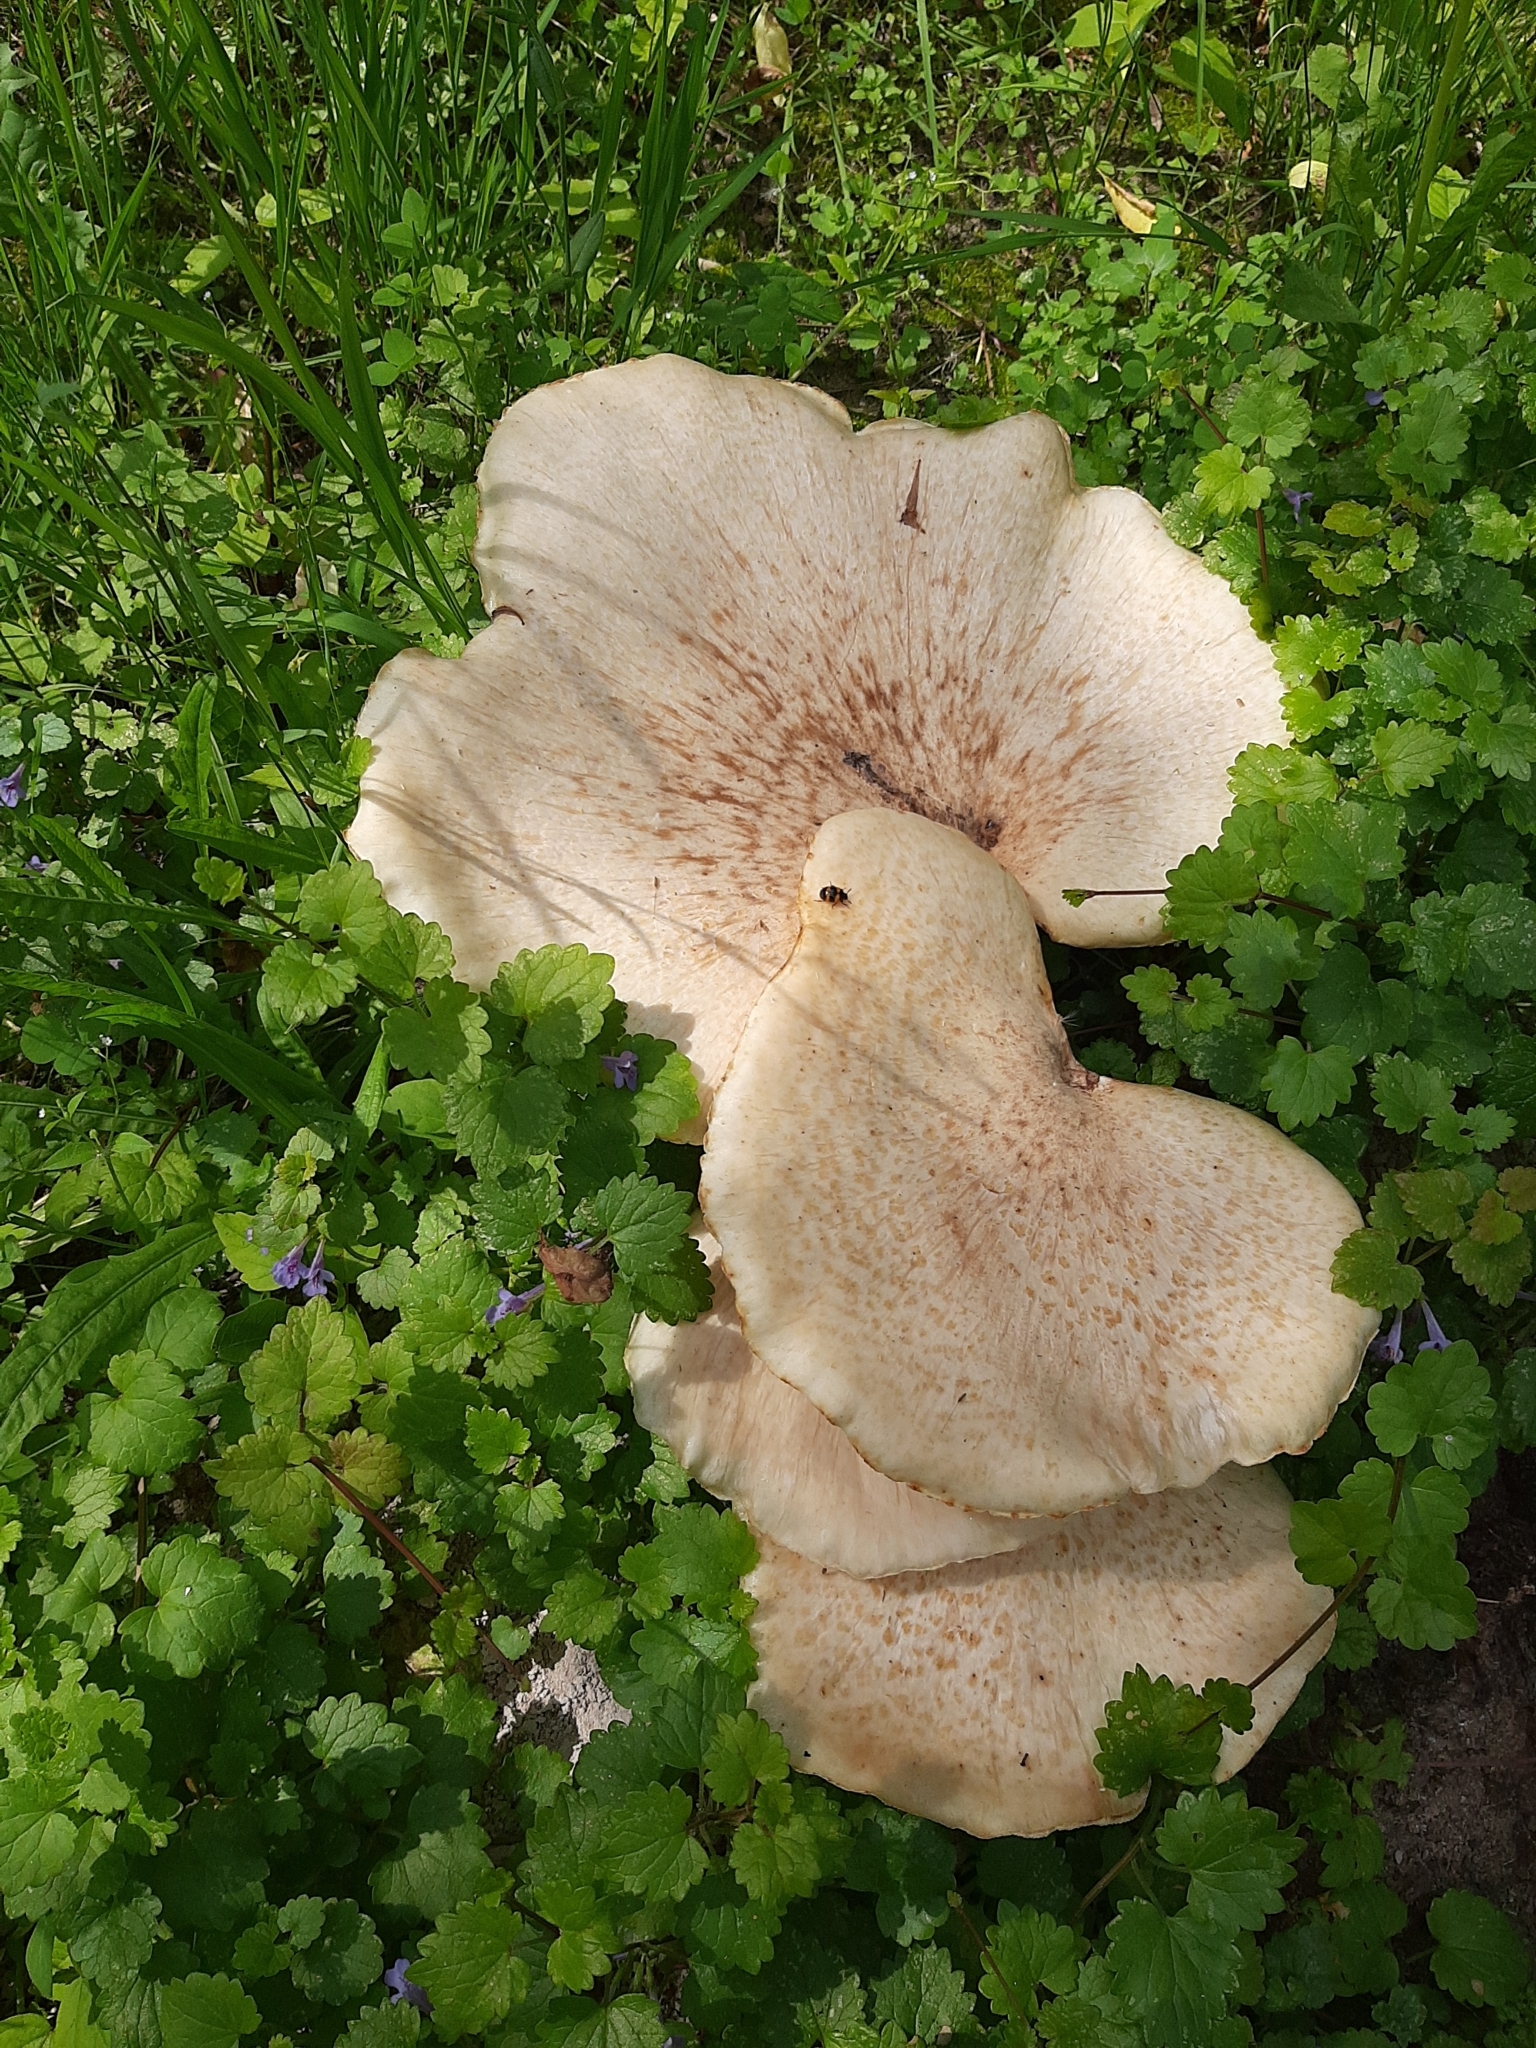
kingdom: Fungi
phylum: Basidiomycota
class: Agaricomycetes
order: Polyporales
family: Polyporaceae
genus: Cerioporus
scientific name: Cerioporus squamosus
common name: Dryad's saddle
